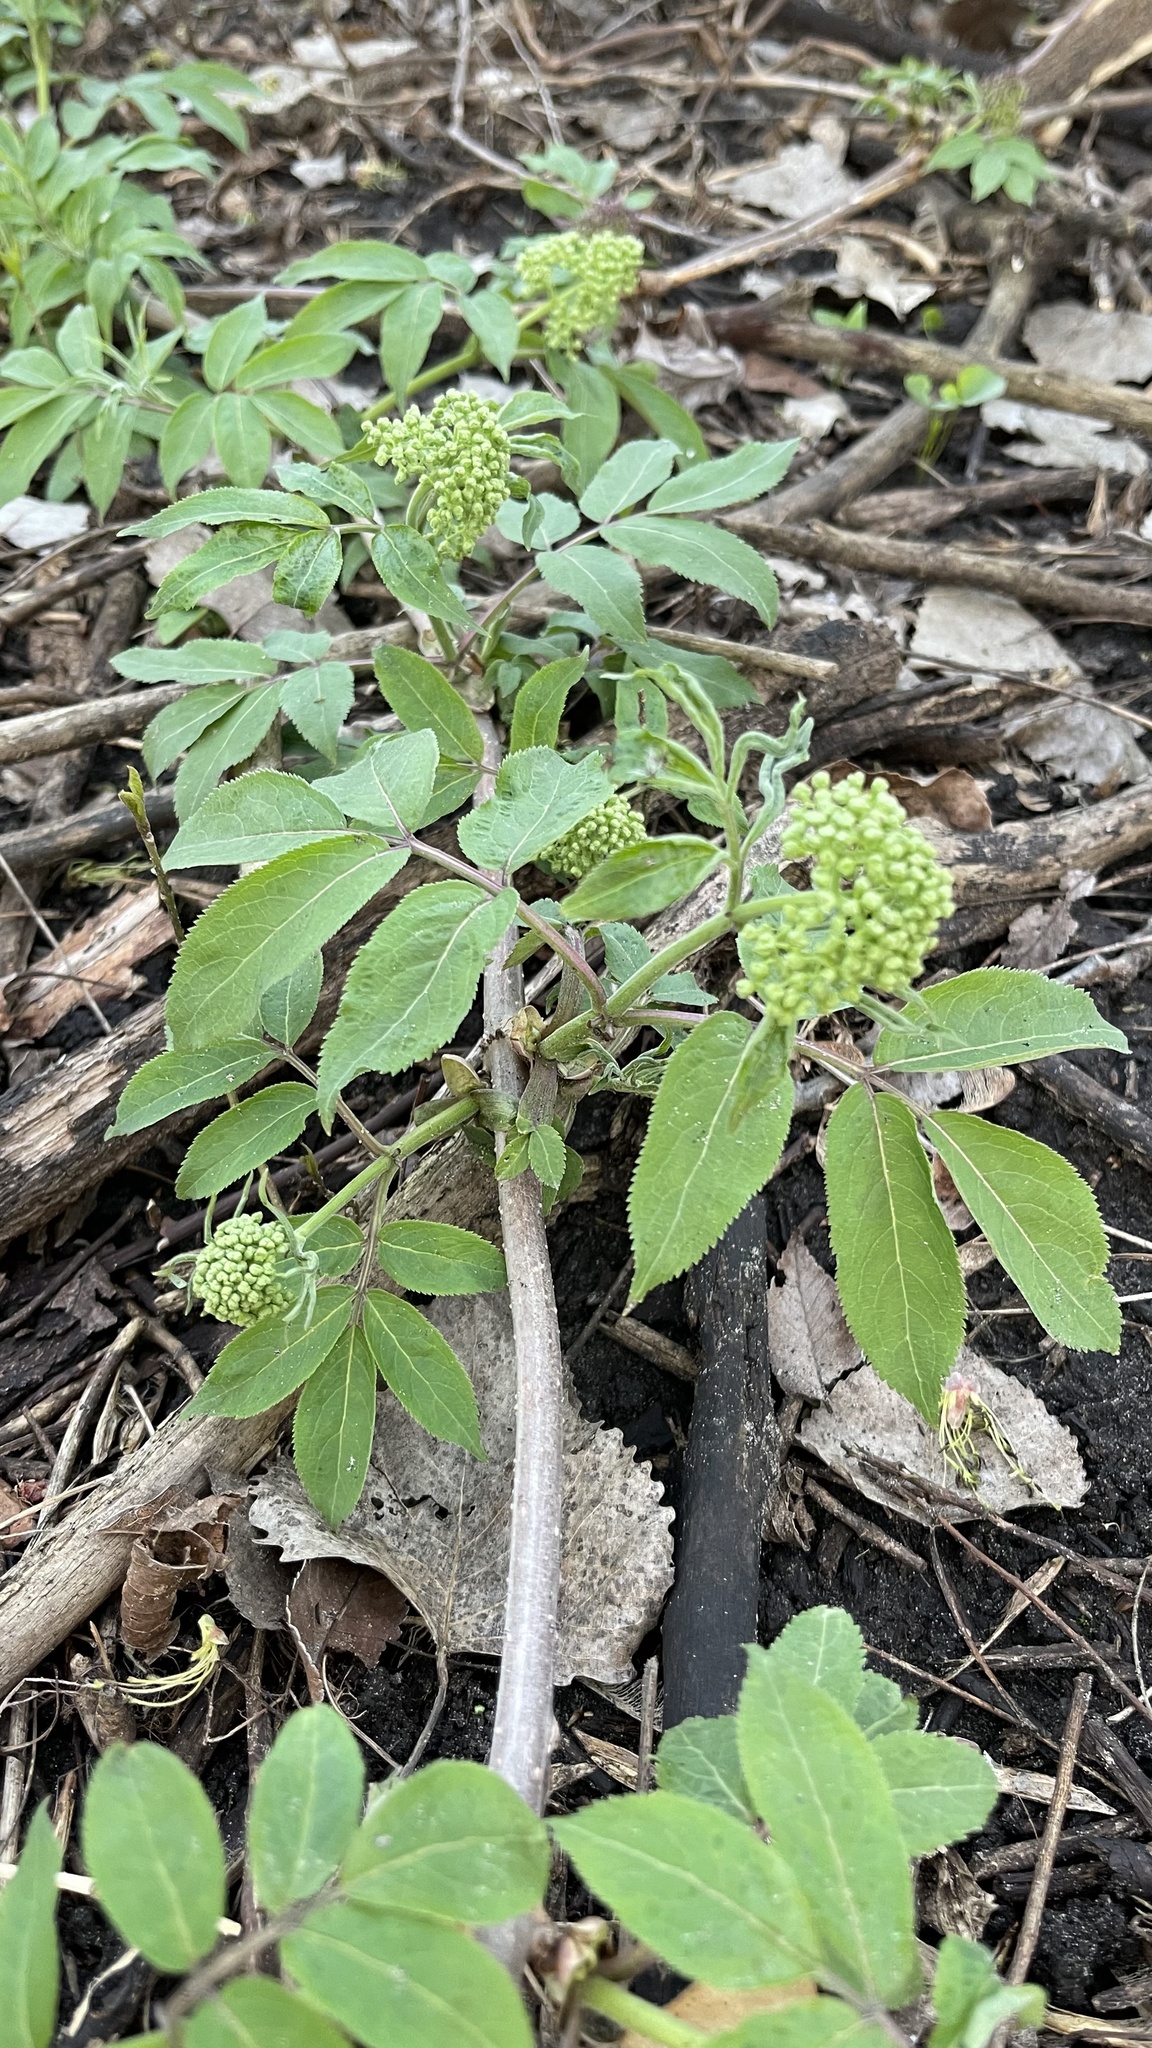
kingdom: Plantae
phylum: Tracheophyta
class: Magnoliopsida
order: Dipsacales
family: Viburnaceae
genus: Sambucus
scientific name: Sambucus racemosa
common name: Red-berried elder
